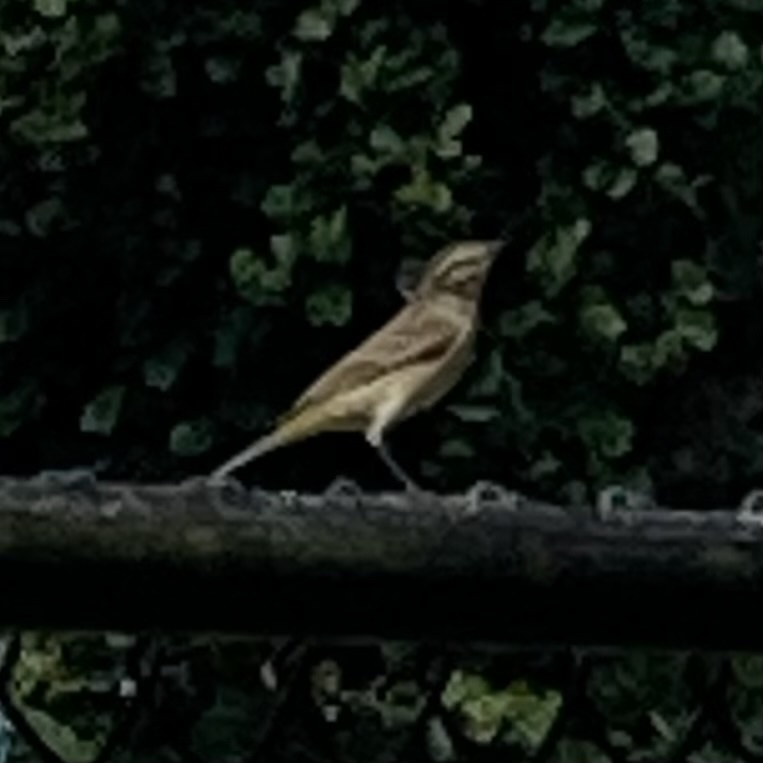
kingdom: Animalia
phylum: Chordata
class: Aves
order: Passeriformes
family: Parulidae
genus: Setophaga
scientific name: Setophaga palmarum
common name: Palm warbler
